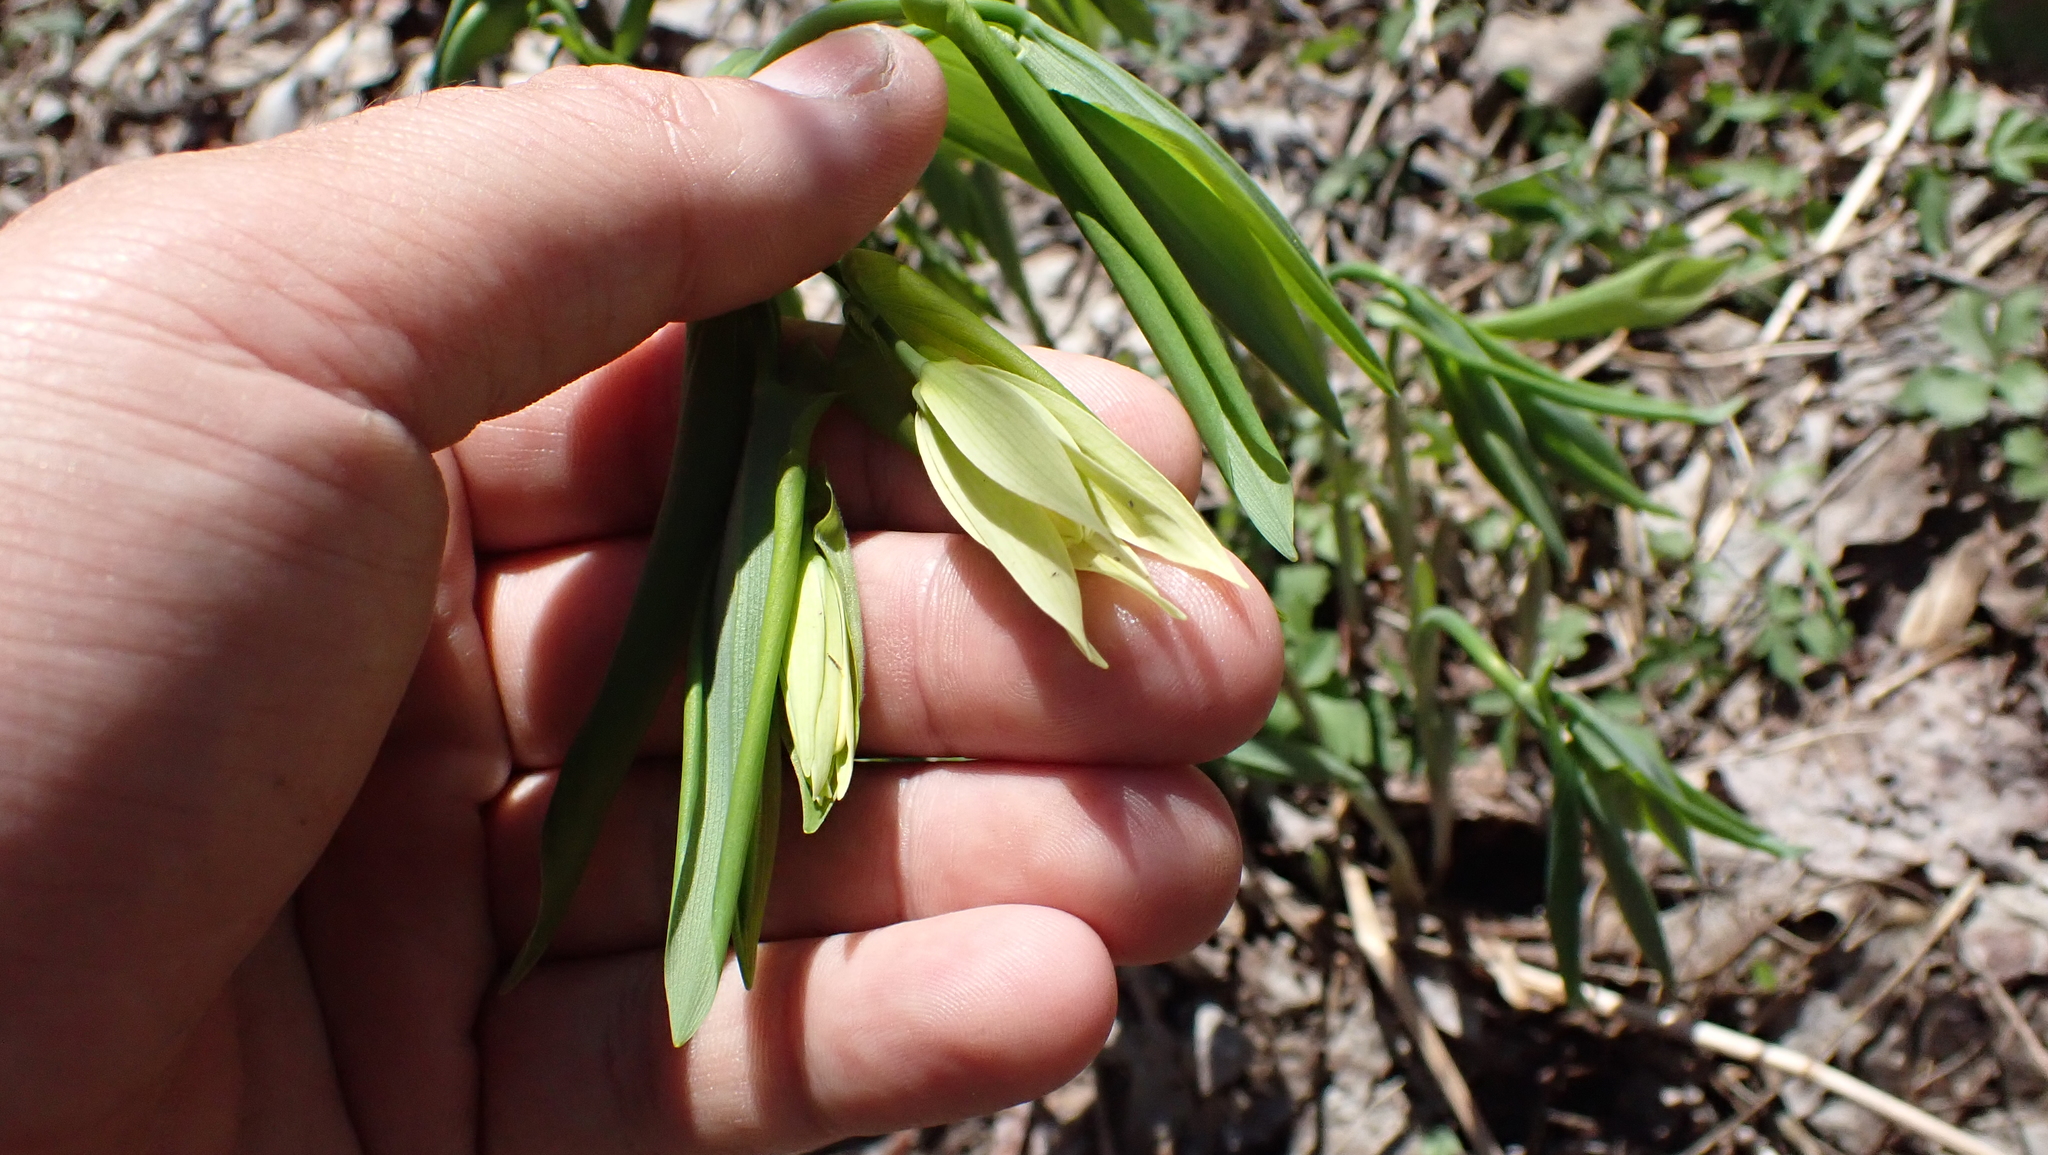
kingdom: Plantae
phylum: Tracheophyta
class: Liliopsida
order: Liliales
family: Colchicaceae
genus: Uvularia
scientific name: Uvularia grandiflora
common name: Bellwort
